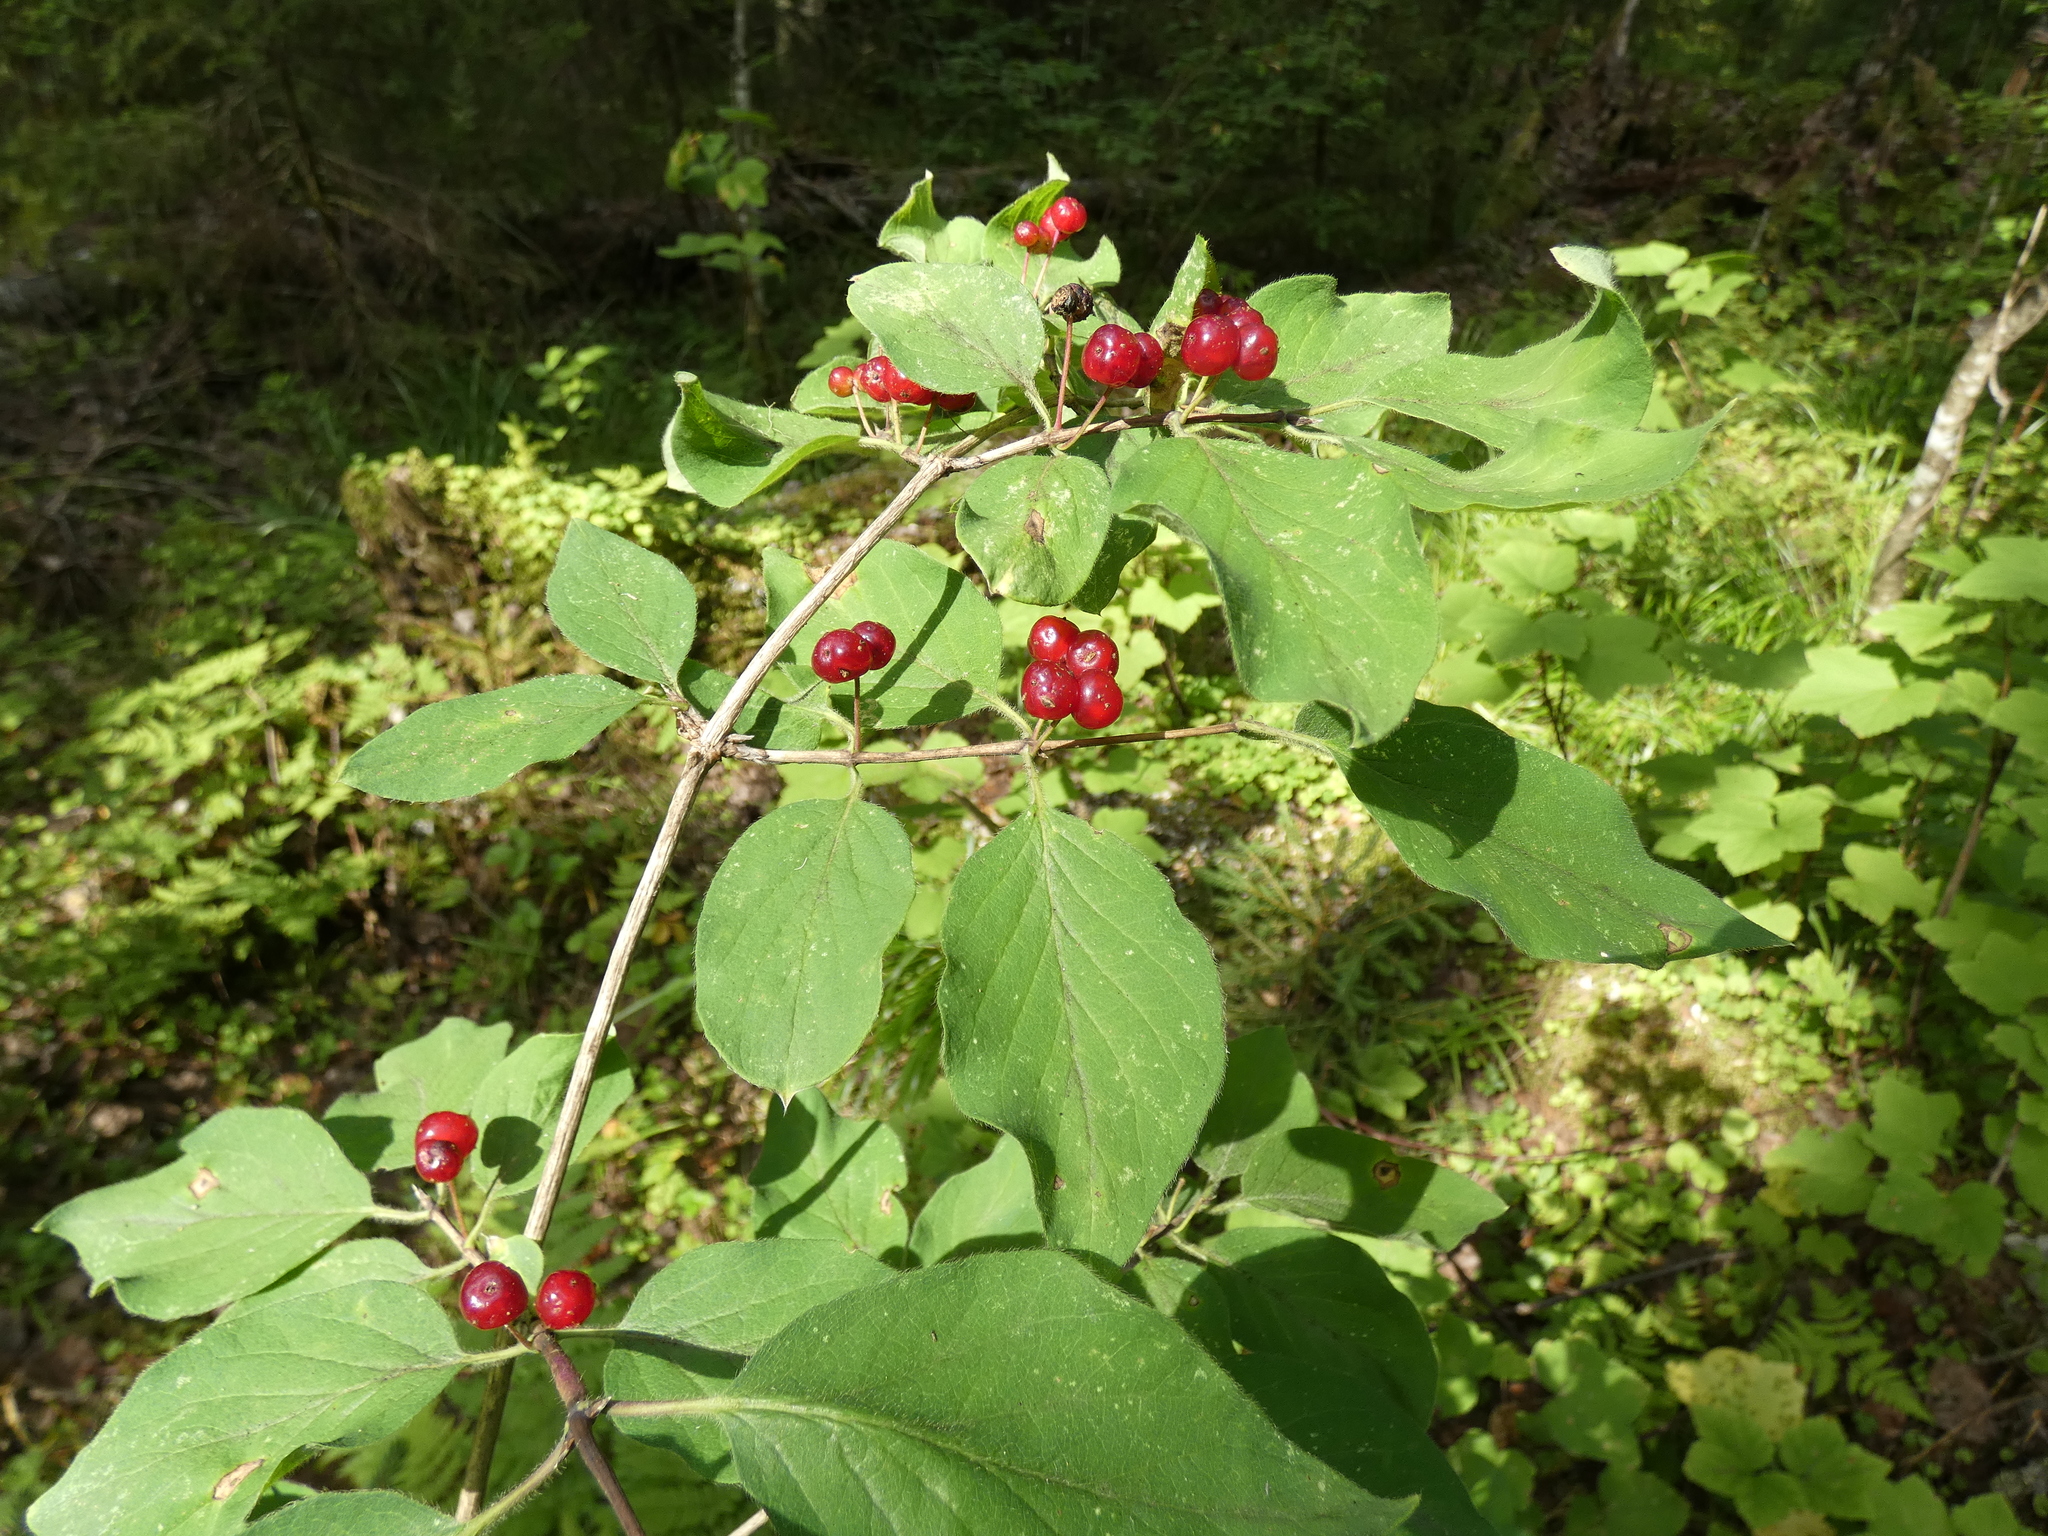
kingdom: Plantae
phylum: Tracheophyta
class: Magnoliopsida
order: Dipsacales
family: Caprifoliaceae
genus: Lonicera
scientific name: Lonicera xylosteum
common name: Fly honeysuckle
